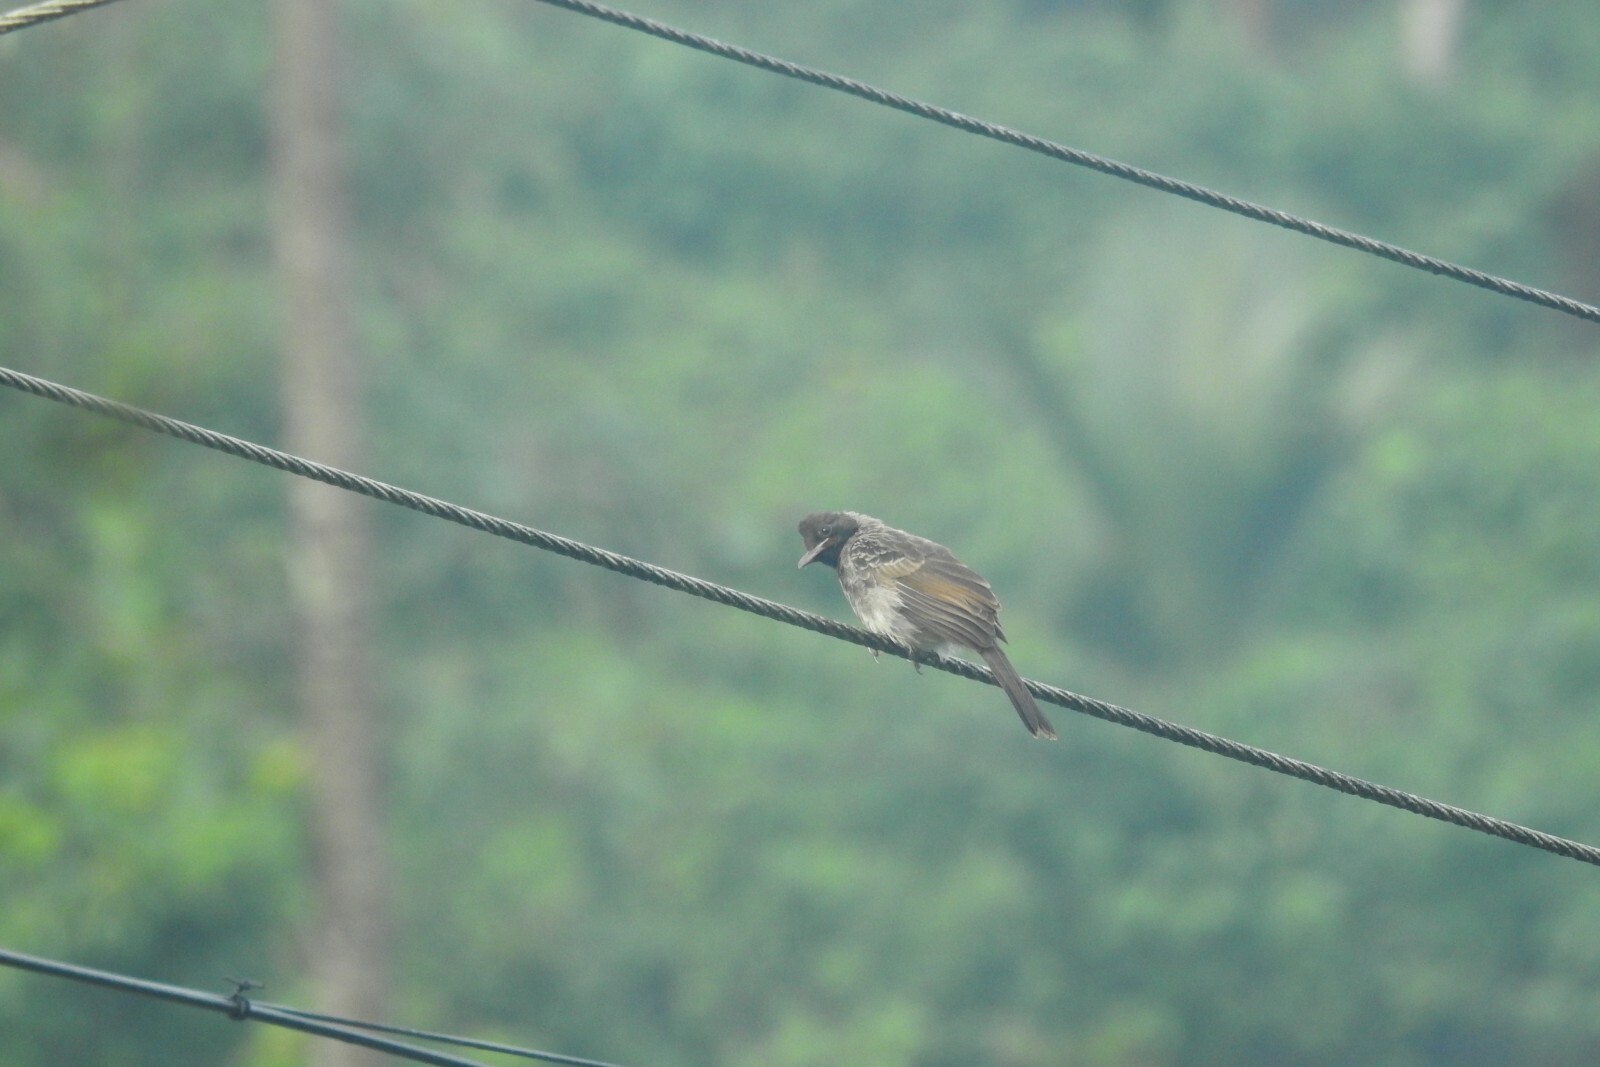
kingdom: Animalia
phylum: Chordata
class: Aves
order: Passeriformes
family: Pycnonotidae
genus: Pycnonotus
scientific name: Pycnonotus cafer
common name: Red-vented bulbul
